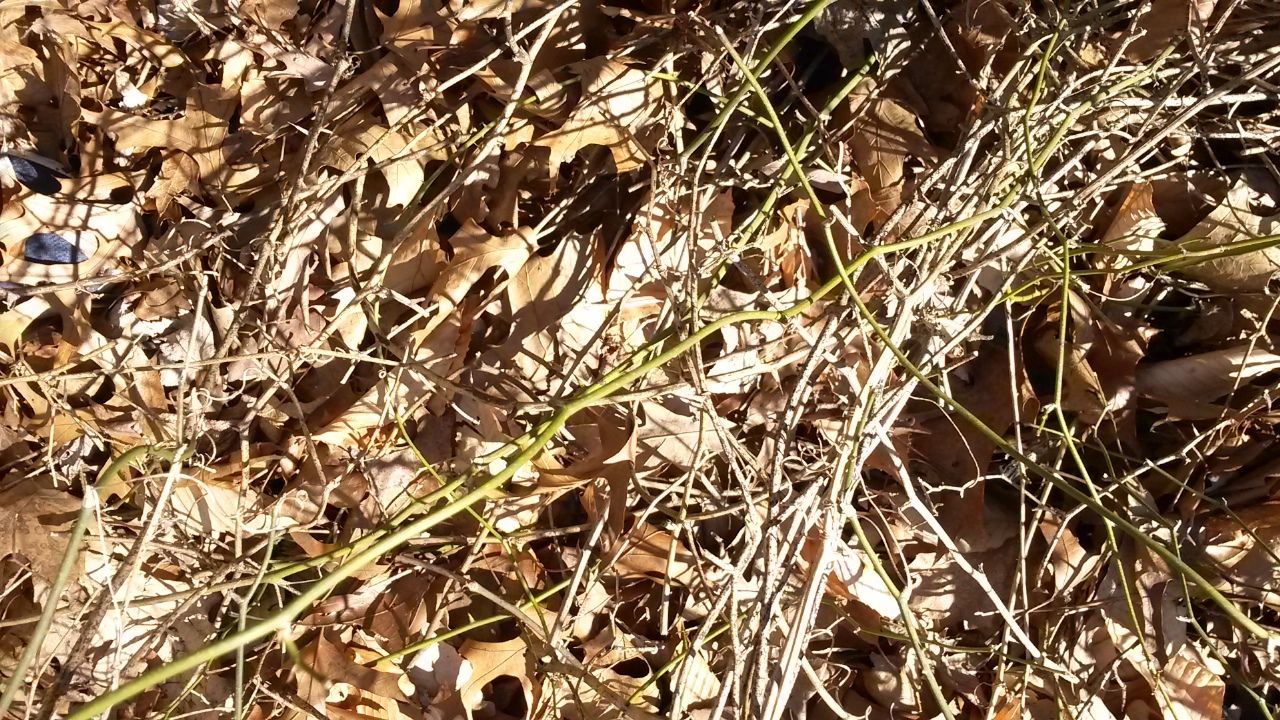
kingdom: Plantae
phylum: Tracheophyta
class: Liliopsida
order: Liliales
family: Smilacaceae
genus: Smilax
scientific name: Smilax rotundifolia
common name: Bullbriar
